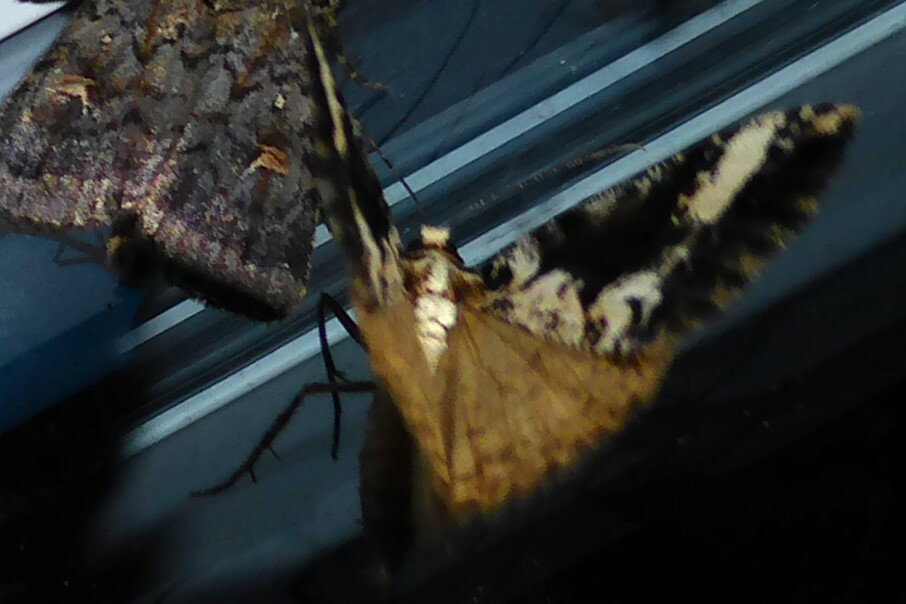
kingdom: Animalia
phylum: Arthropoda
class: Insecta
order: Lepidoptera
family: Geometridae
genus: Pseudocoremia
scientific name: Pseudocoremia leucelaea
